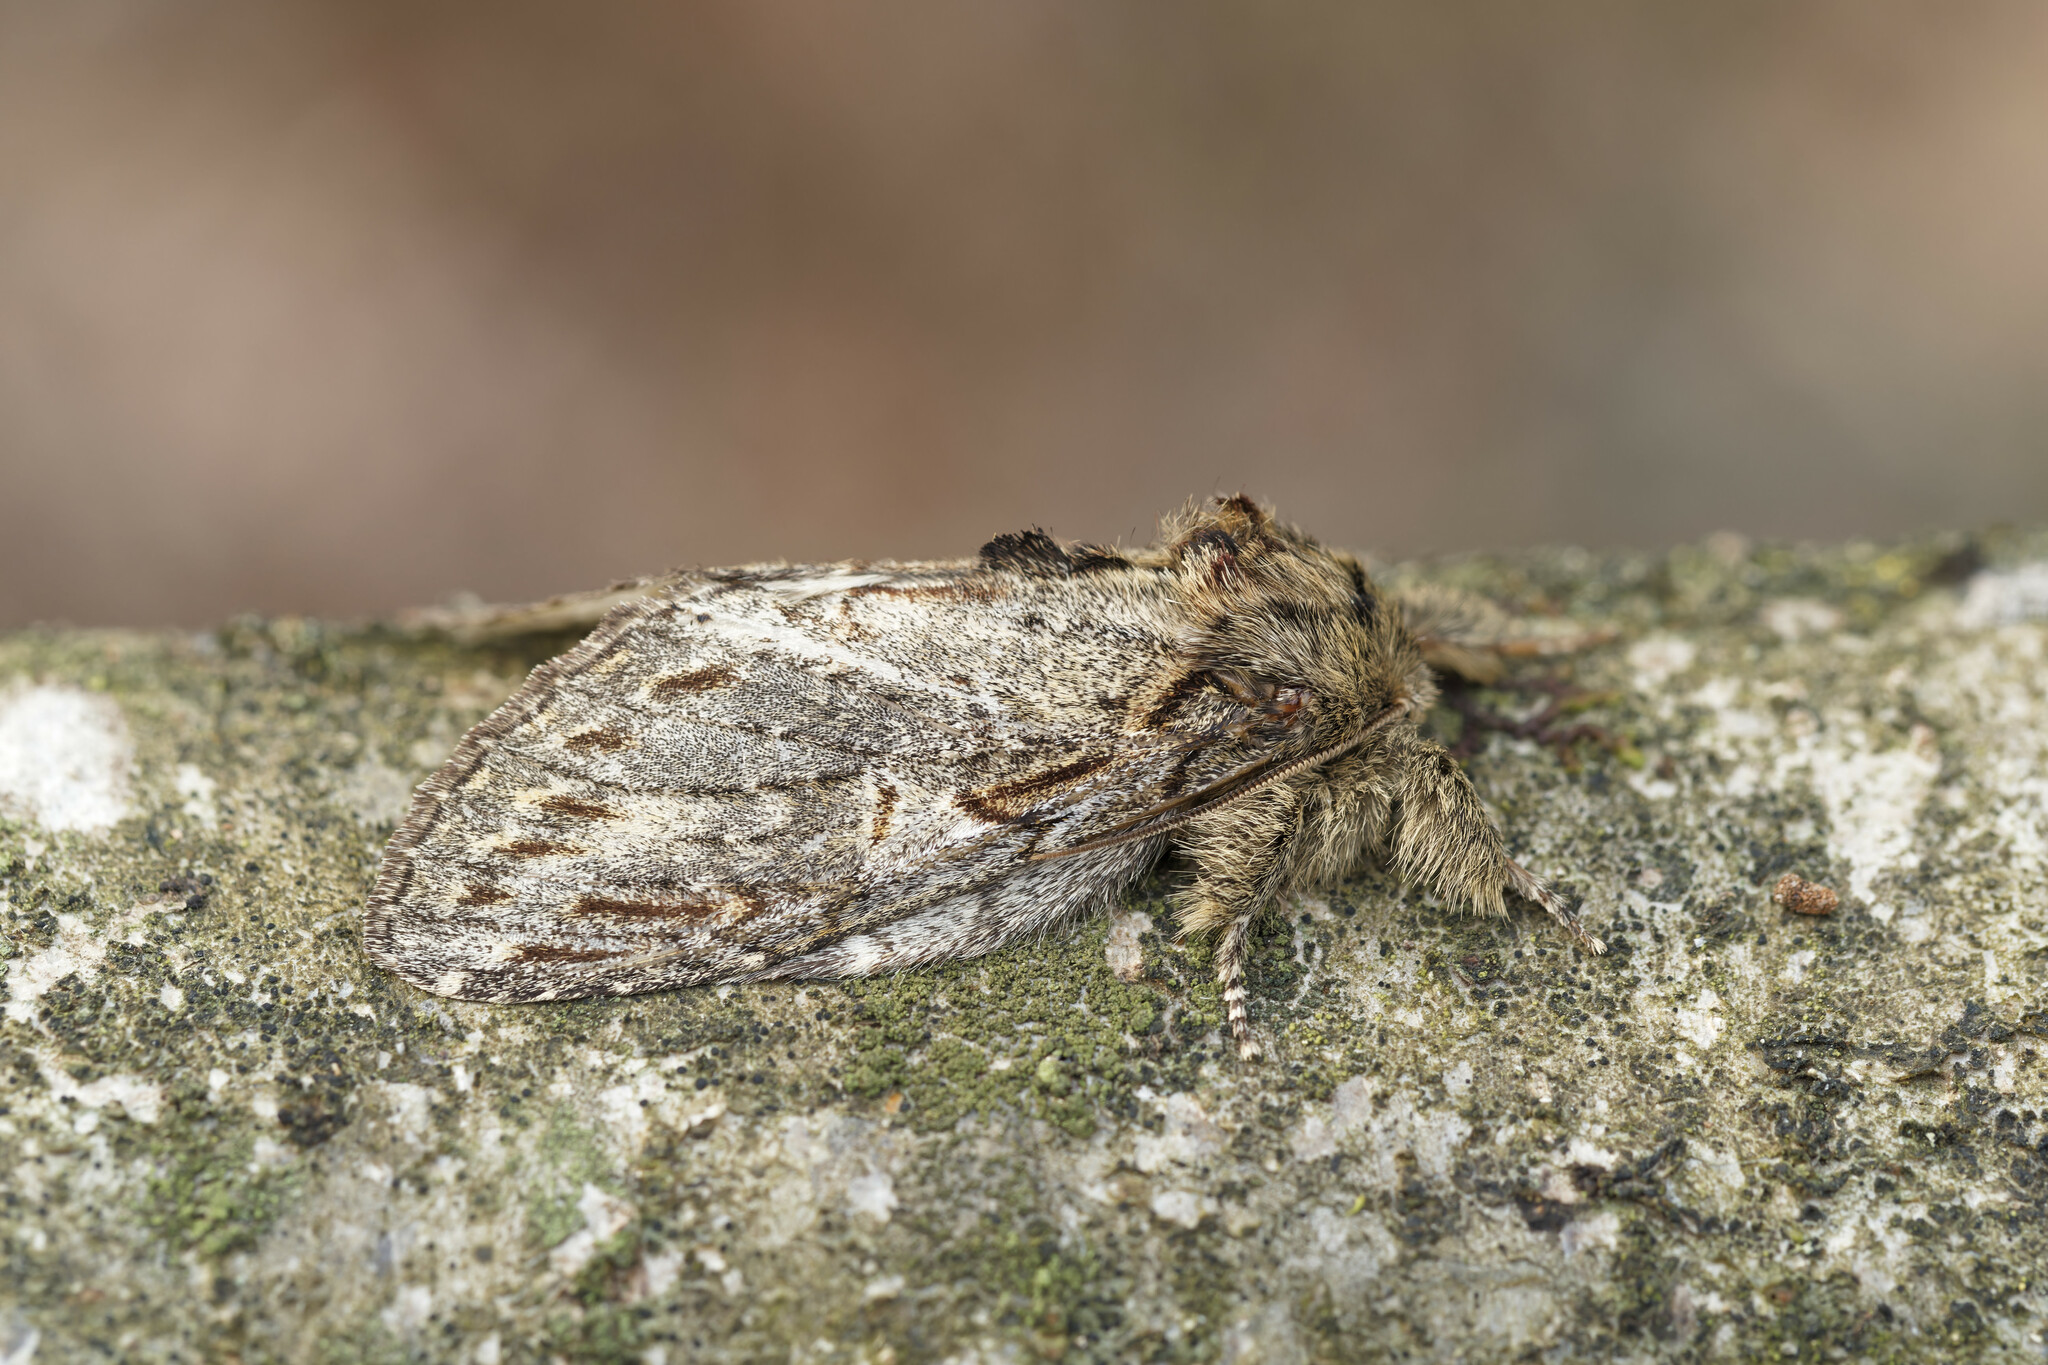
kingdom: Animalia
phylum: Arthropoda
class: Insecta
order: Lepidoptera
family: Notodontidae
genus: Peridea
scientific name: Peridea anceps
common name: Great prominent
